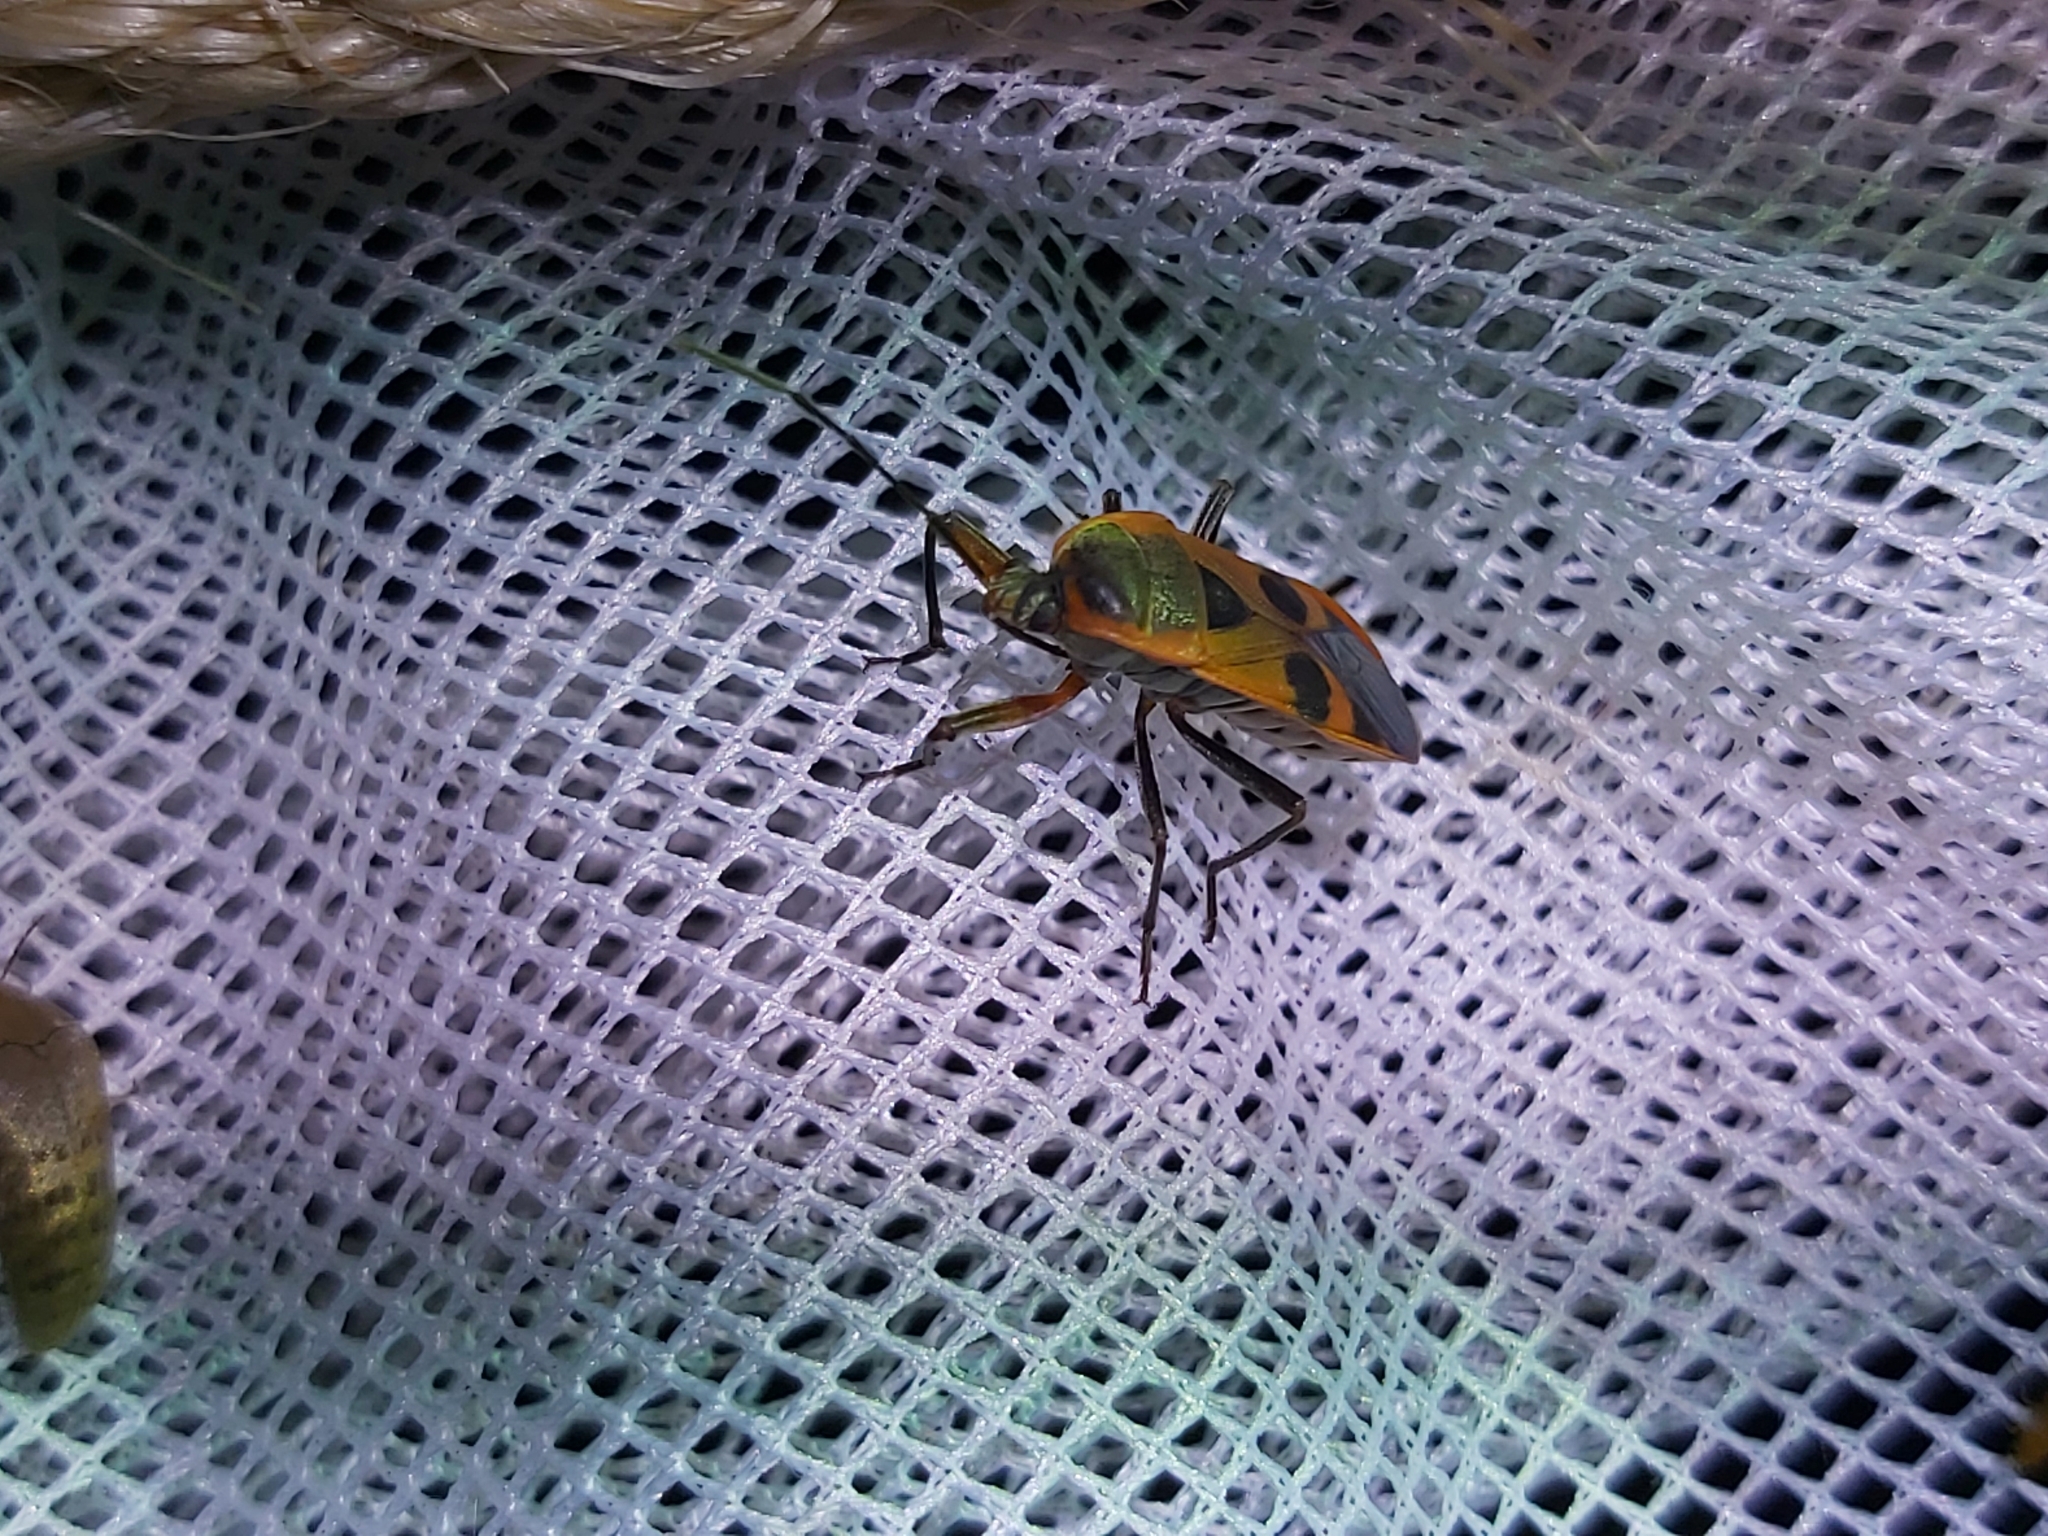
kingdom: Animalia
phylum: Arthropoda
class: Insecta
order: Hemiptera
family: Largidae
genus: Physopelta
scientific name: Physopelta gutta
